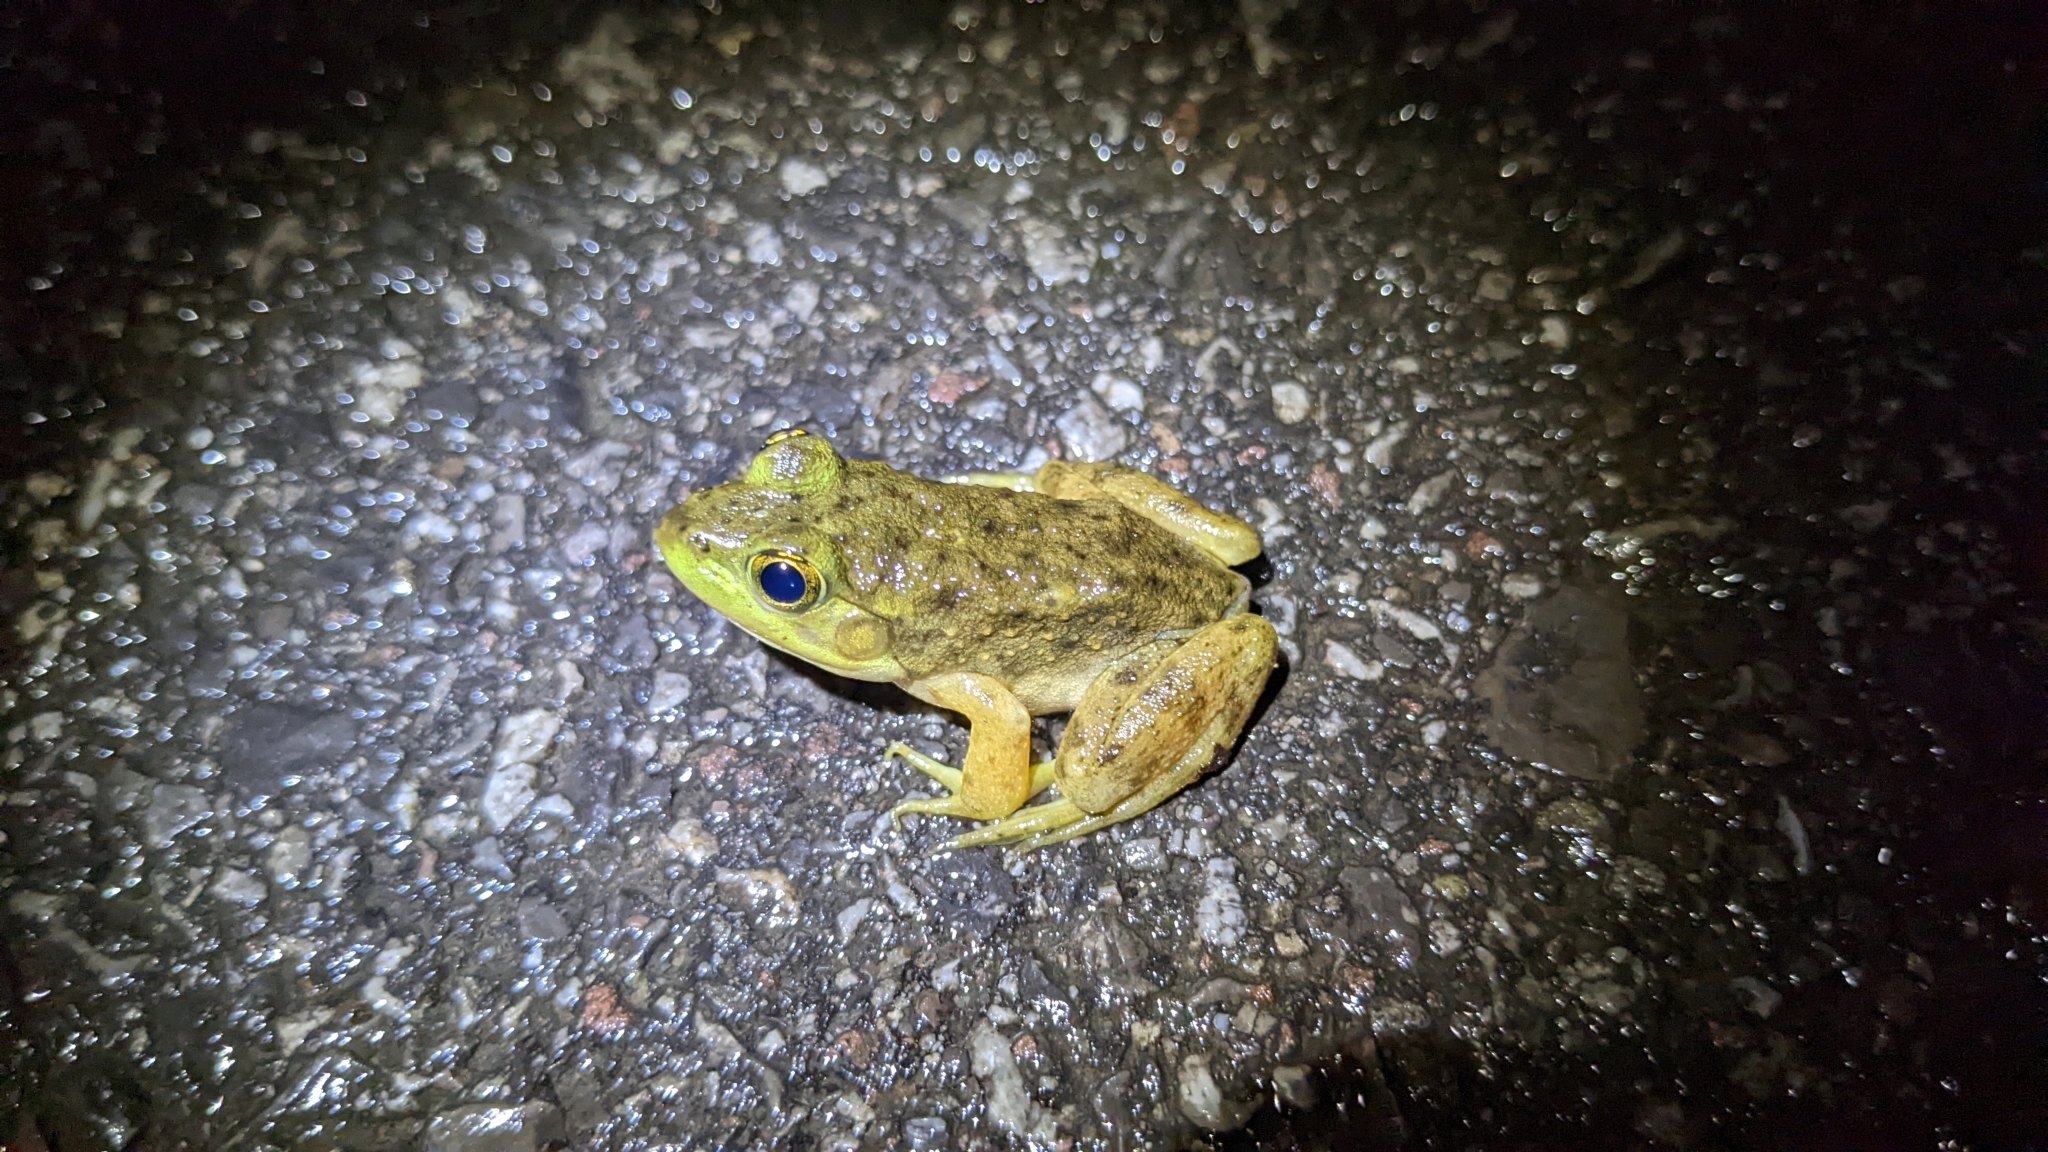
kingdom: Animalia
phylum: Chordata
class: Amphibia
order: Anura
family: Ranidae
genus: Lithobates
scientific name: Lithobates catesbeianus
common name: American bullfrog
